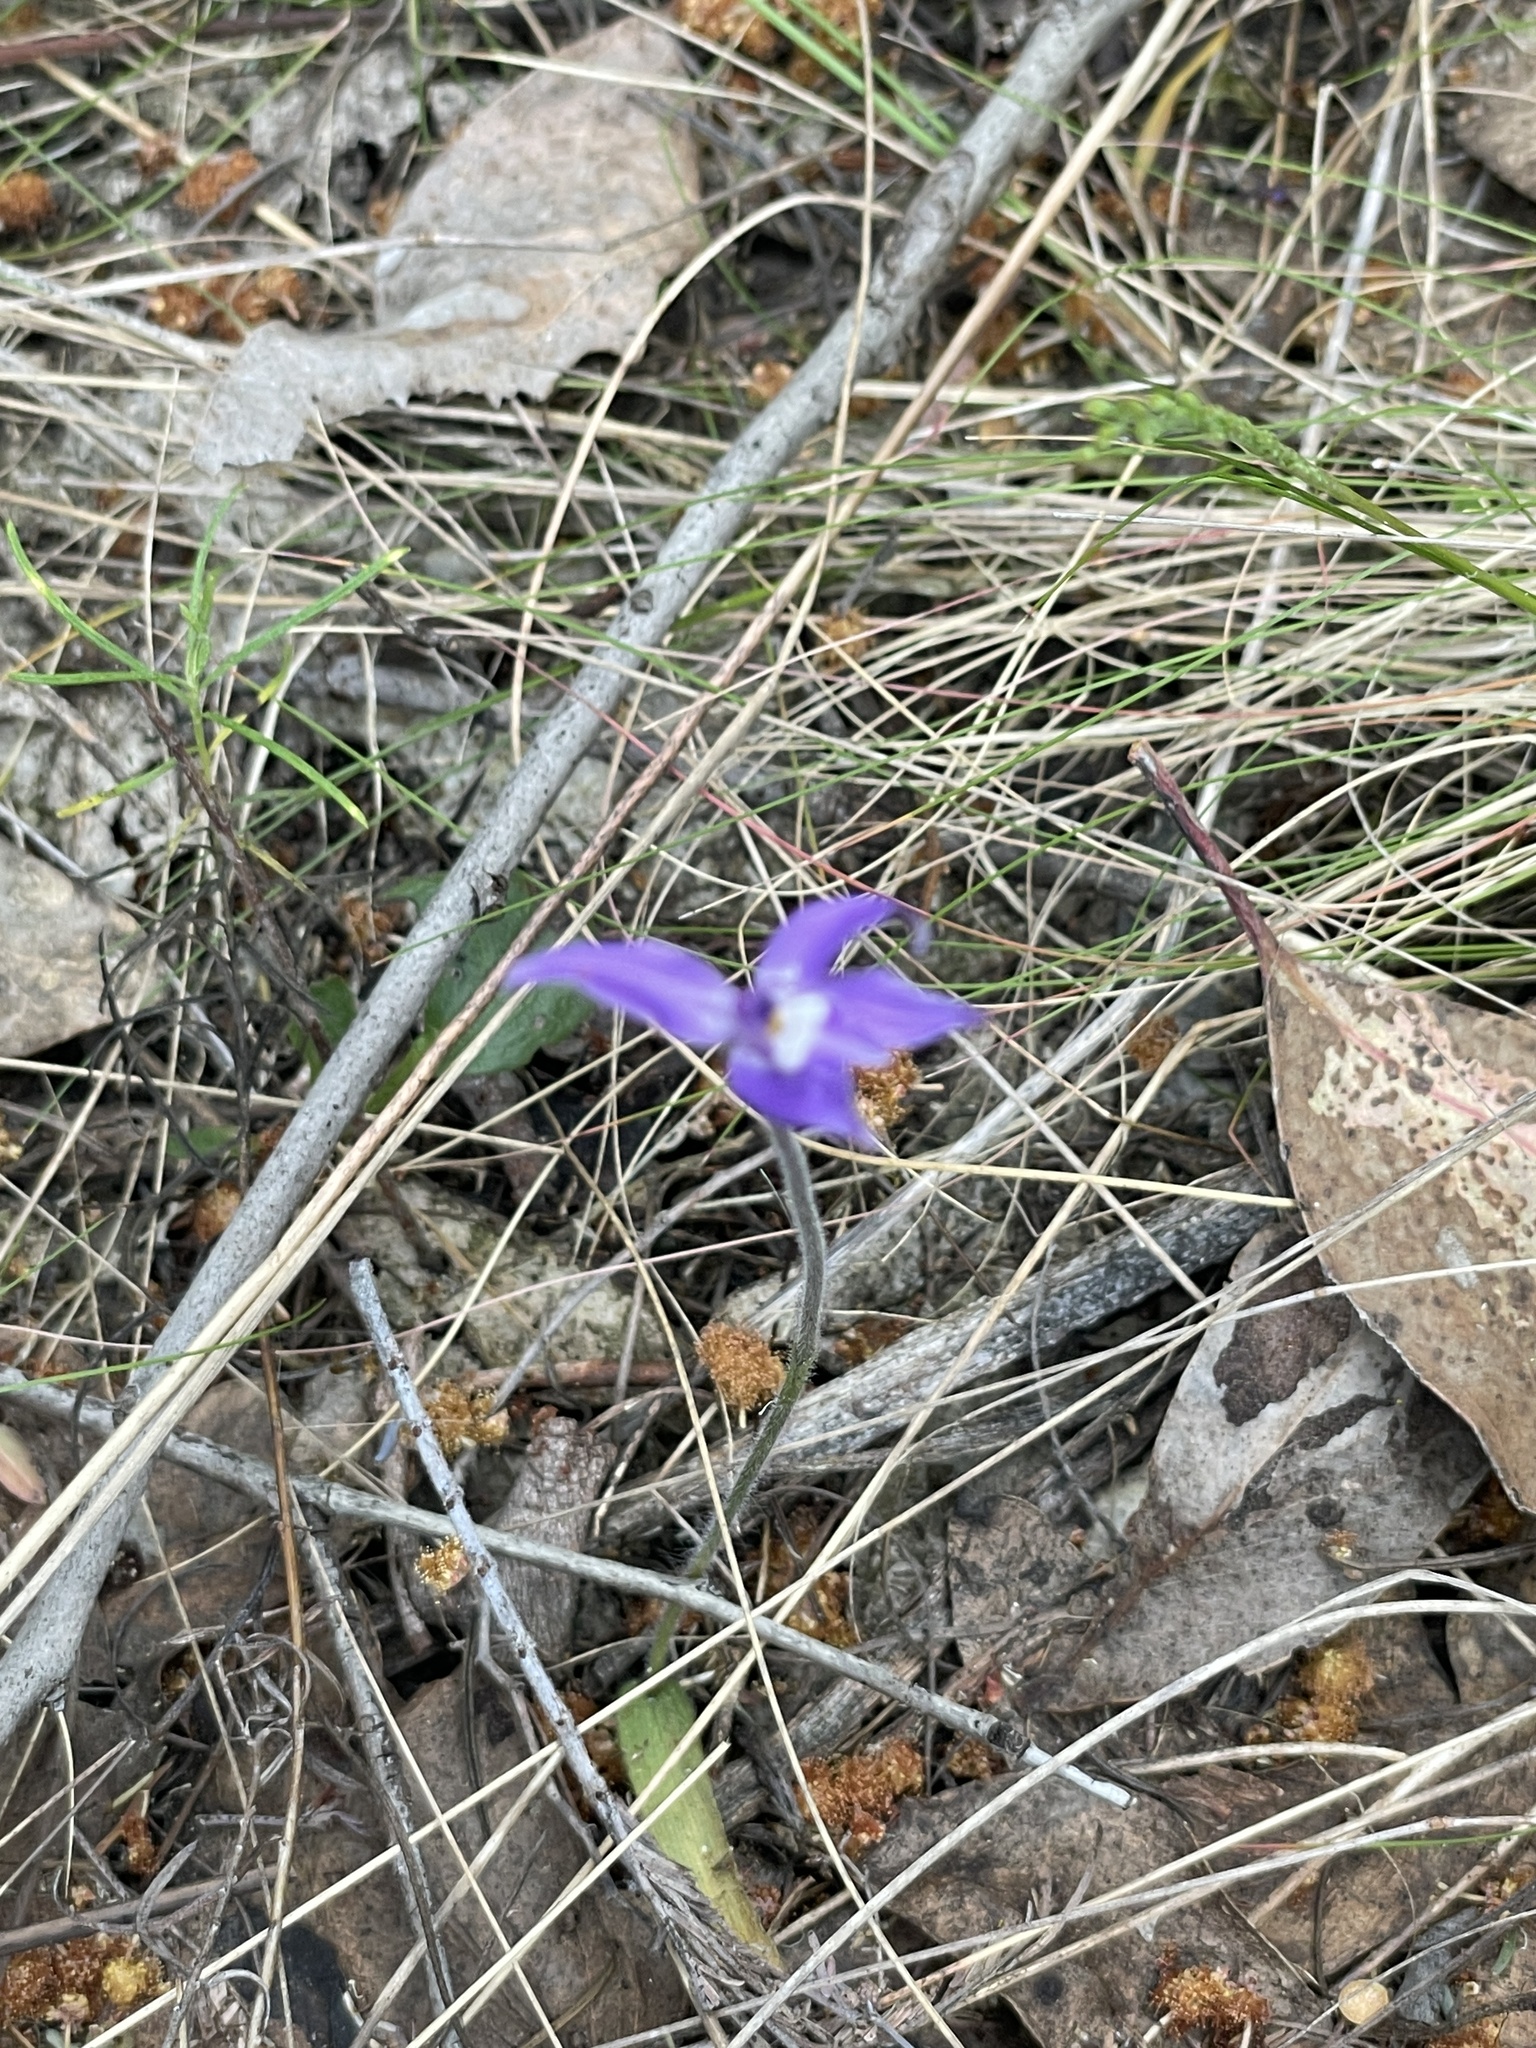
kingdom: Plantae
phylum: Tracheophyta
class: Liliopsida
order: Asparagales
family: Orchidaceae
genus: Caladenia
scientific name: Caladenia major
